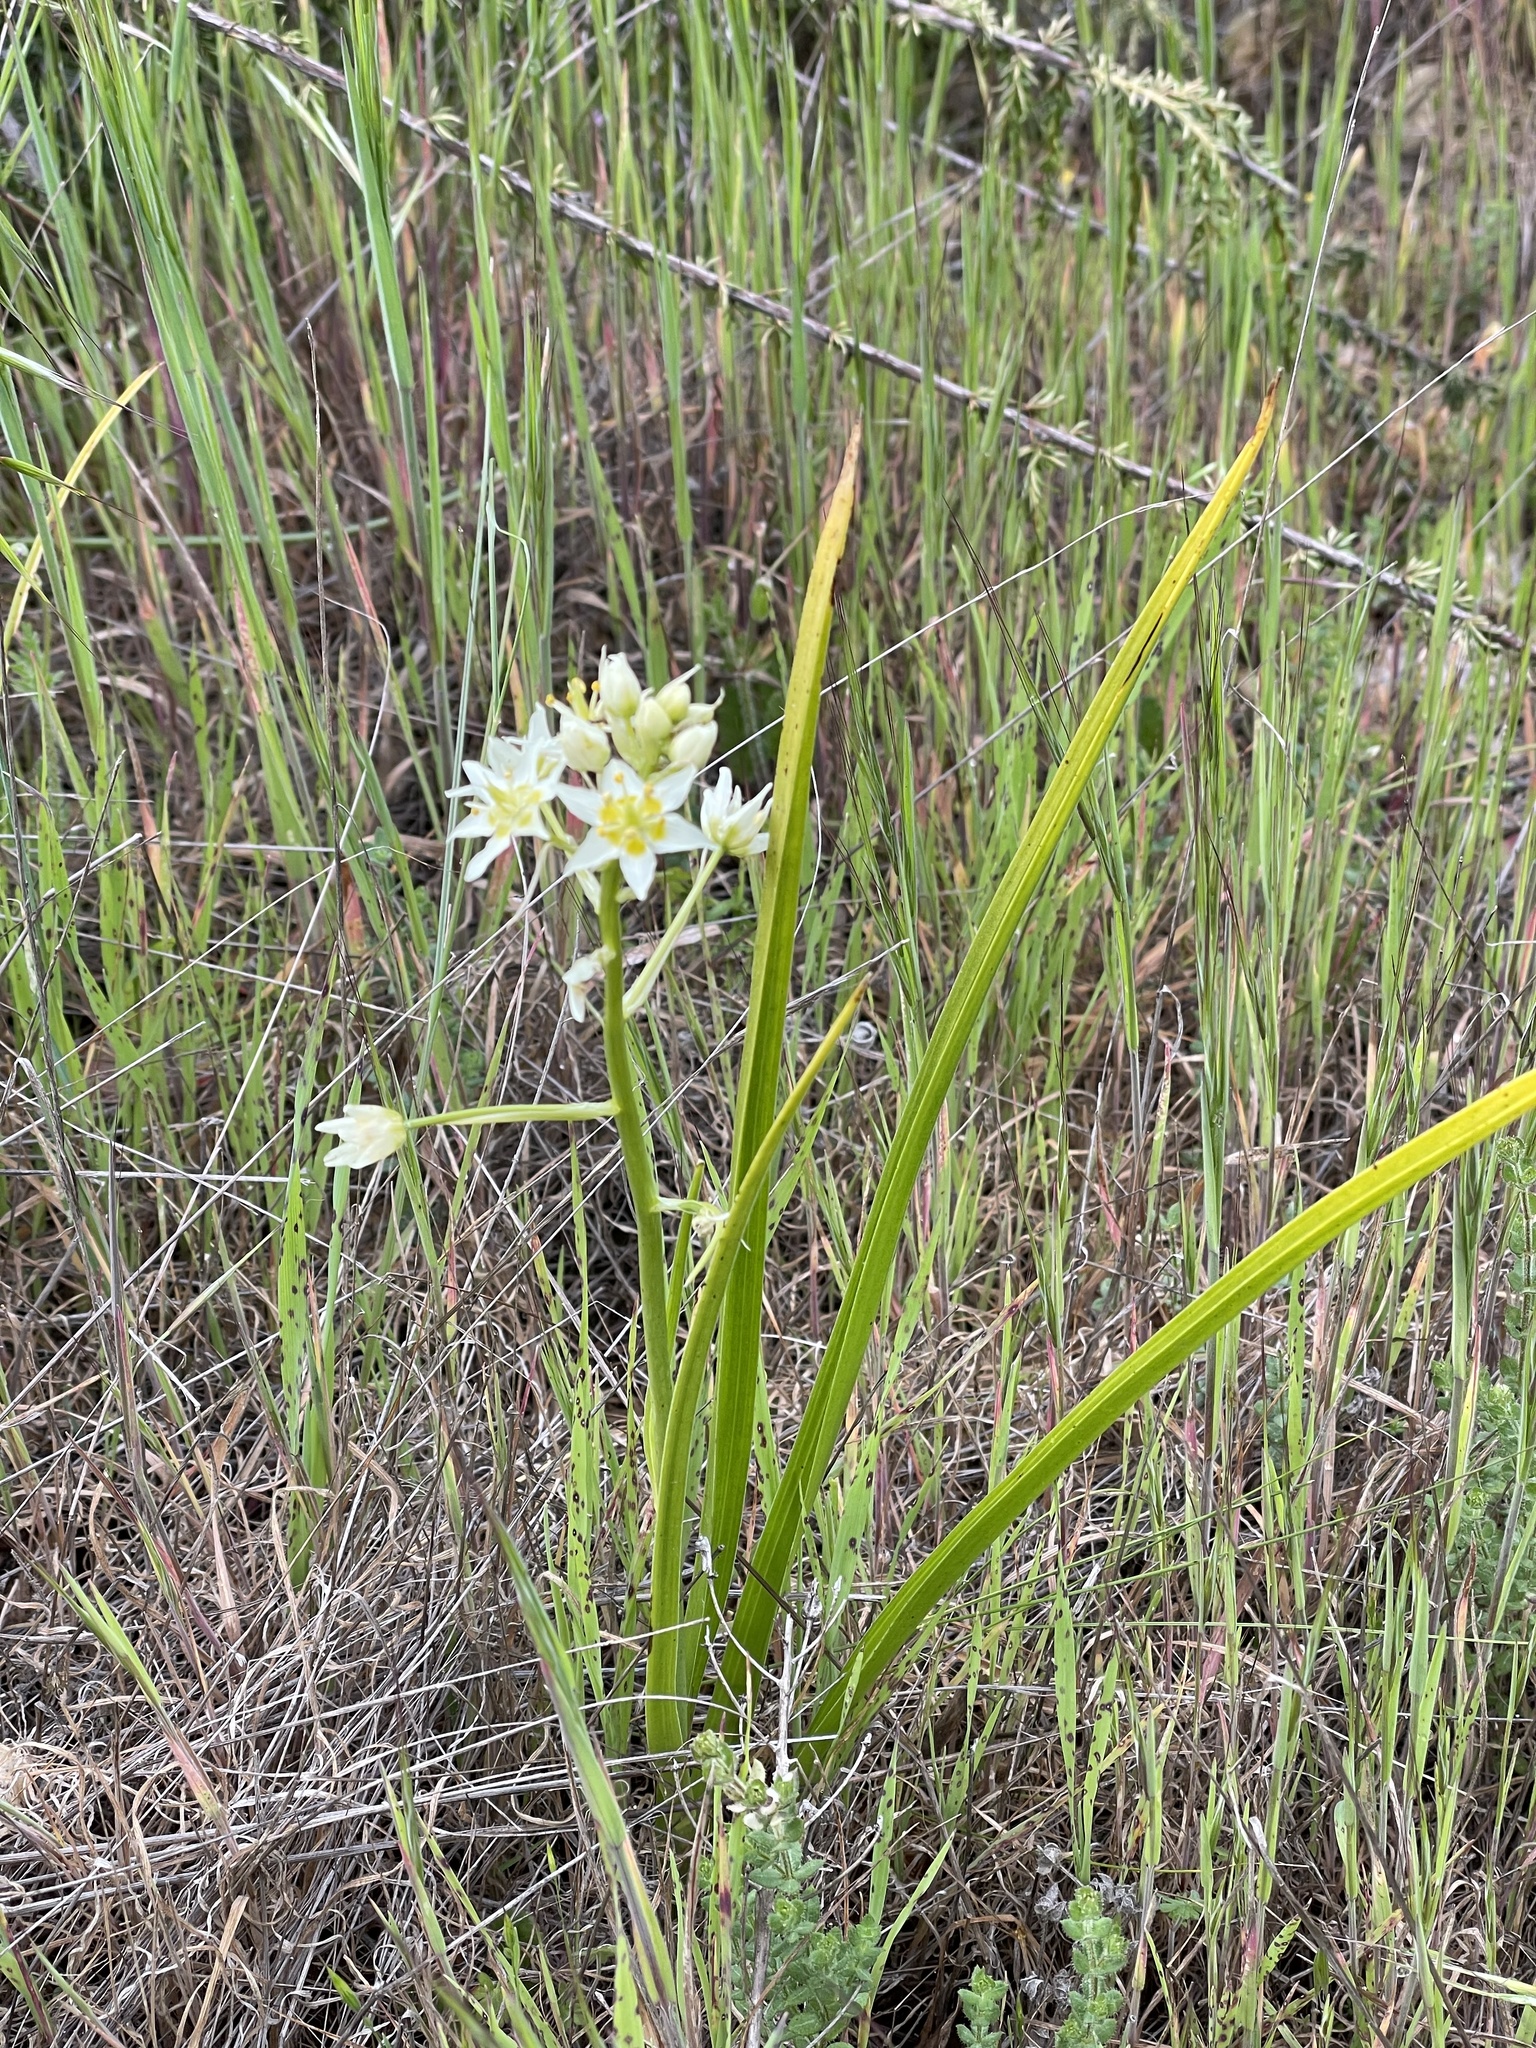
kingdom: Plantae
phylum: Tracheophyta
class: Liliopsida
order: Liliales
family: Melanthiaceae
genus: Toxicoscordion
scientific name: Toxicoscordion fremontii
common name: Fremont's death camas
